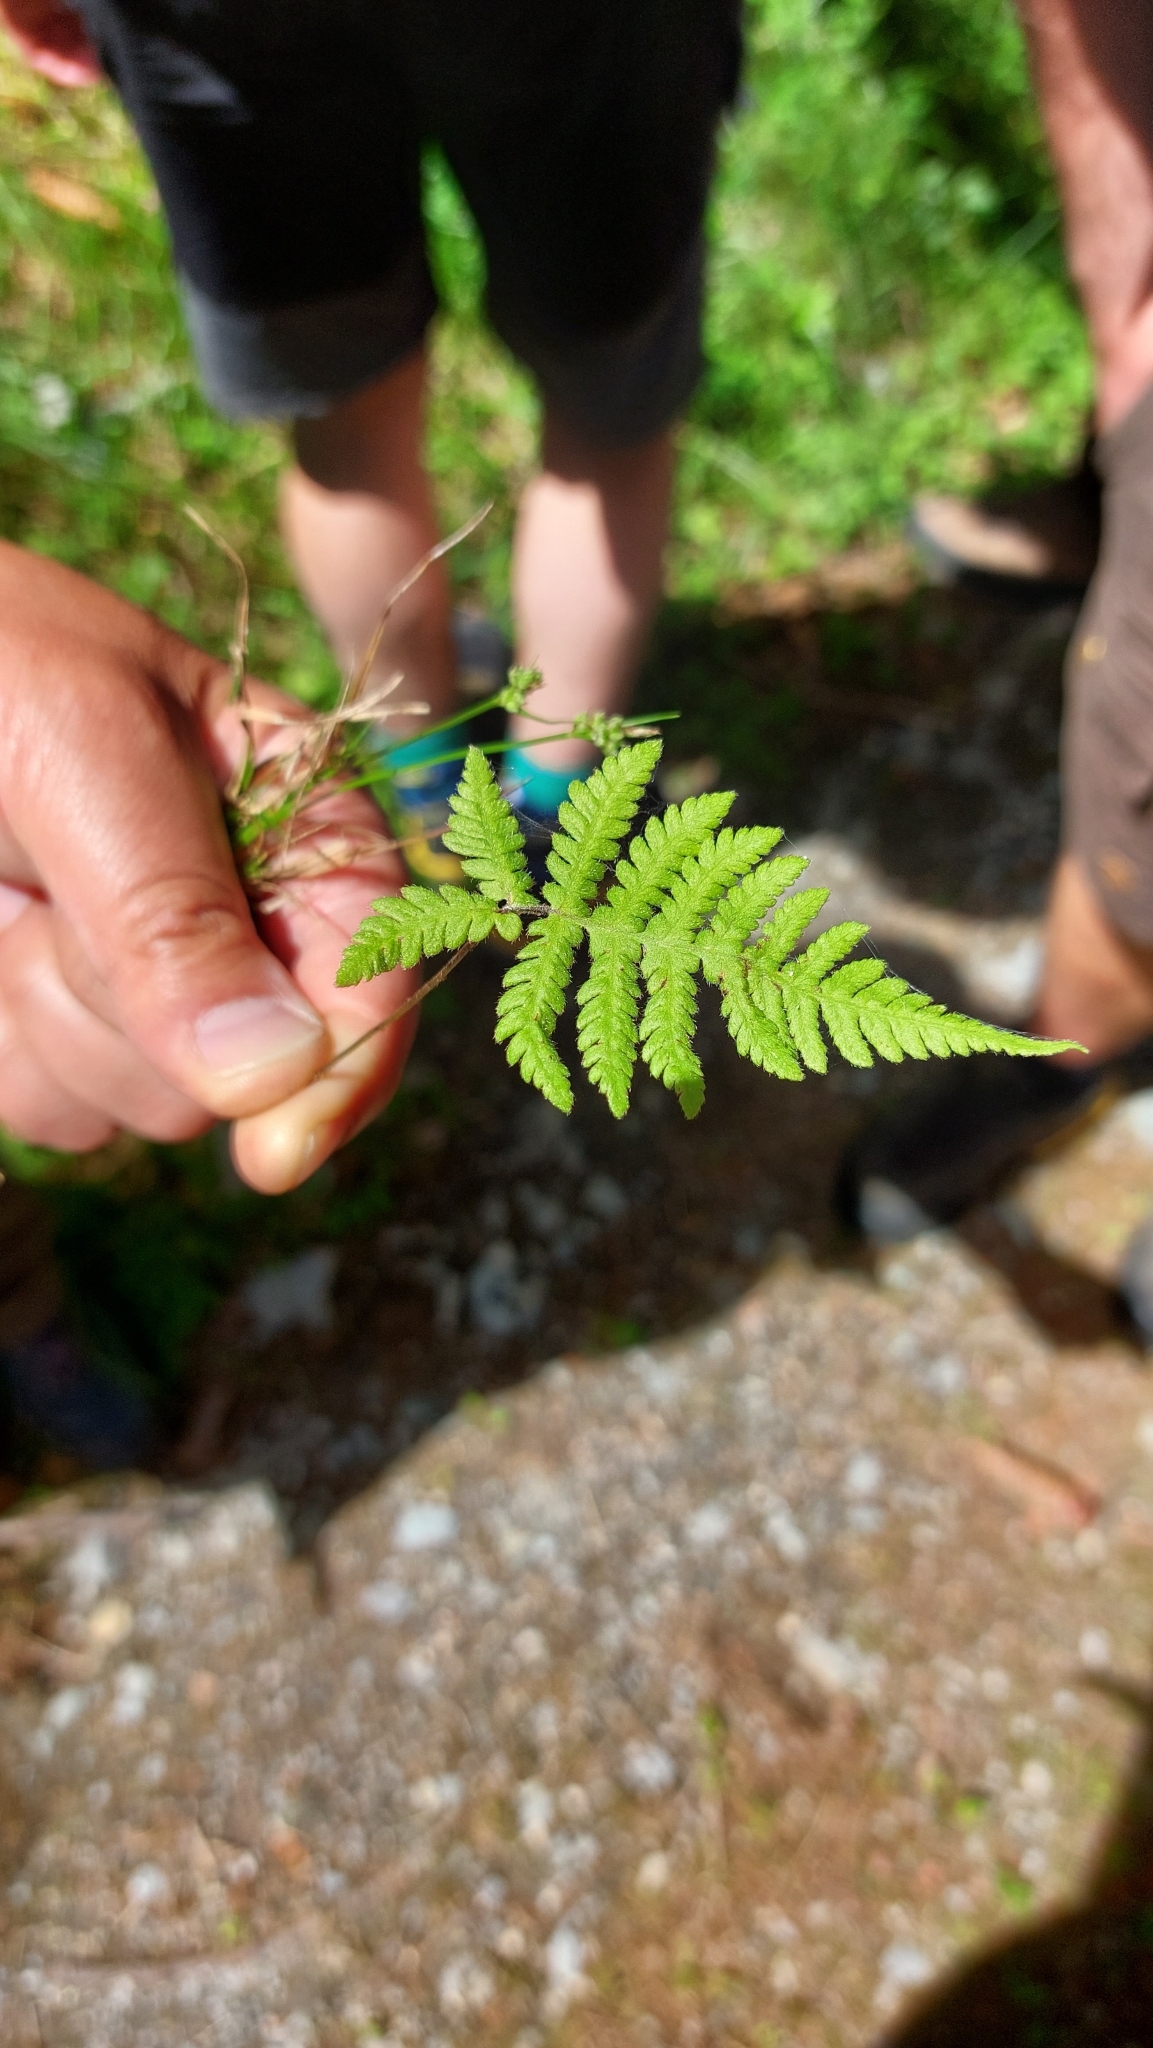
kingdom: Plantae
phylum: Tracheophyta
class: Polypodiopsida
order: Polypodiales
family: Thelypteridaceae
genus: Phegopteris
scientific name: Phegopteris connectilis
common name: Beech fern
